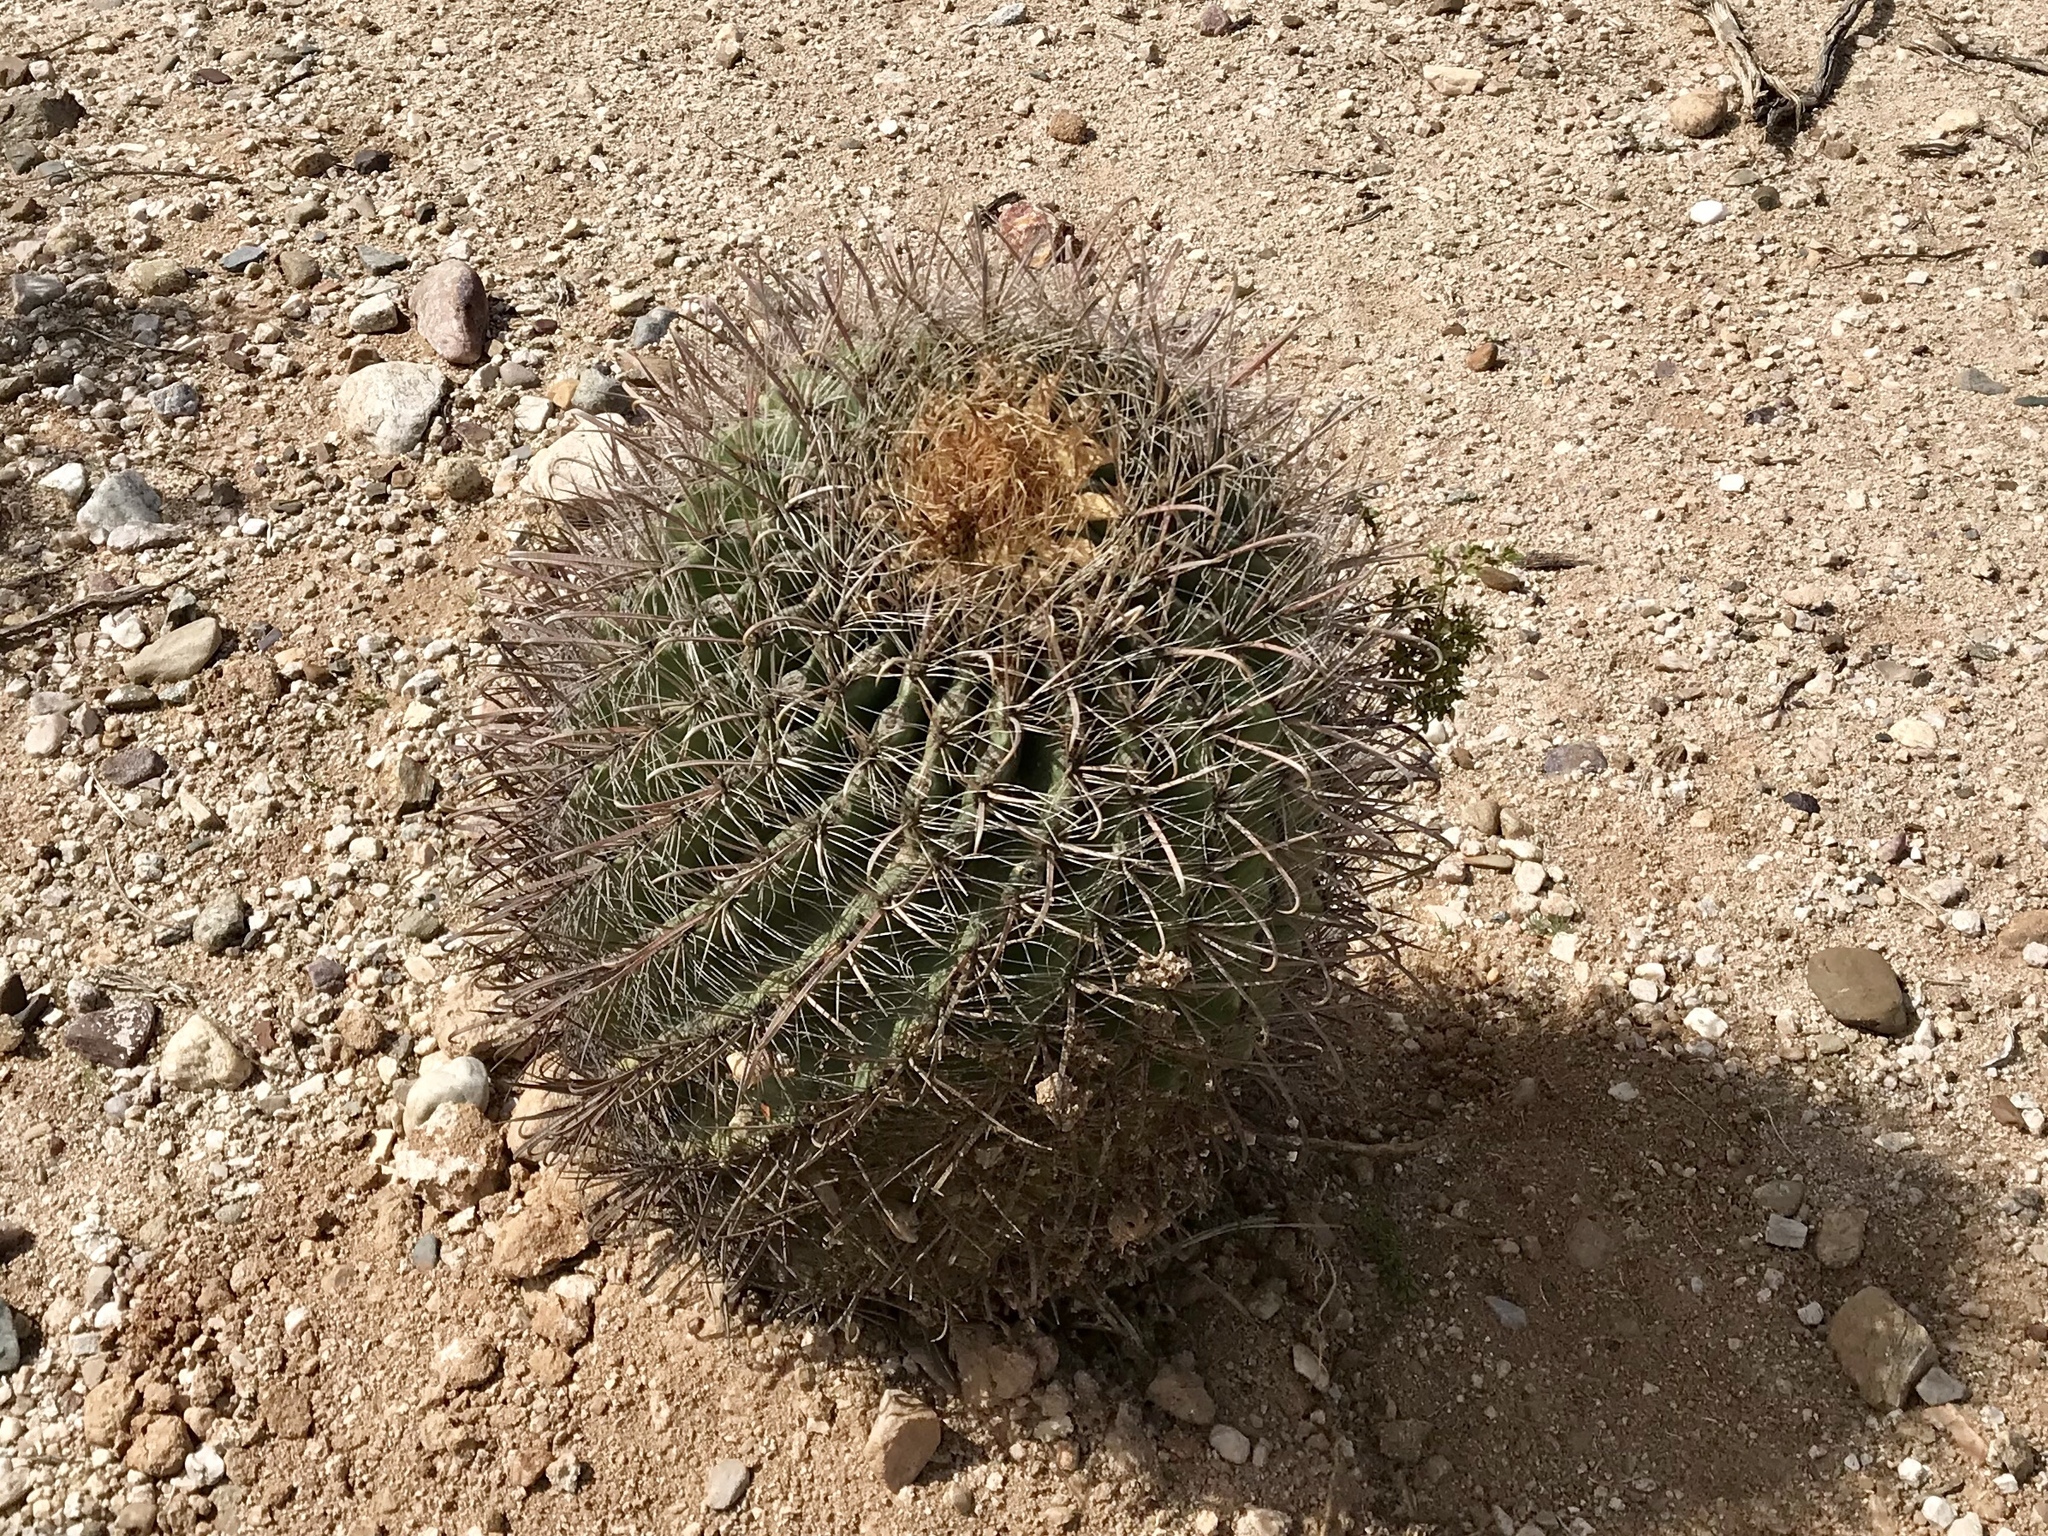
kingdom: Plantae
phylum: Tracheophyta
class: Magnoliopsida
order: Caryophyllales
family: Cactaceae
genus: Ferocactus
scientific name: Ferocactus wislizeni
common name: Candy barrel cactus
